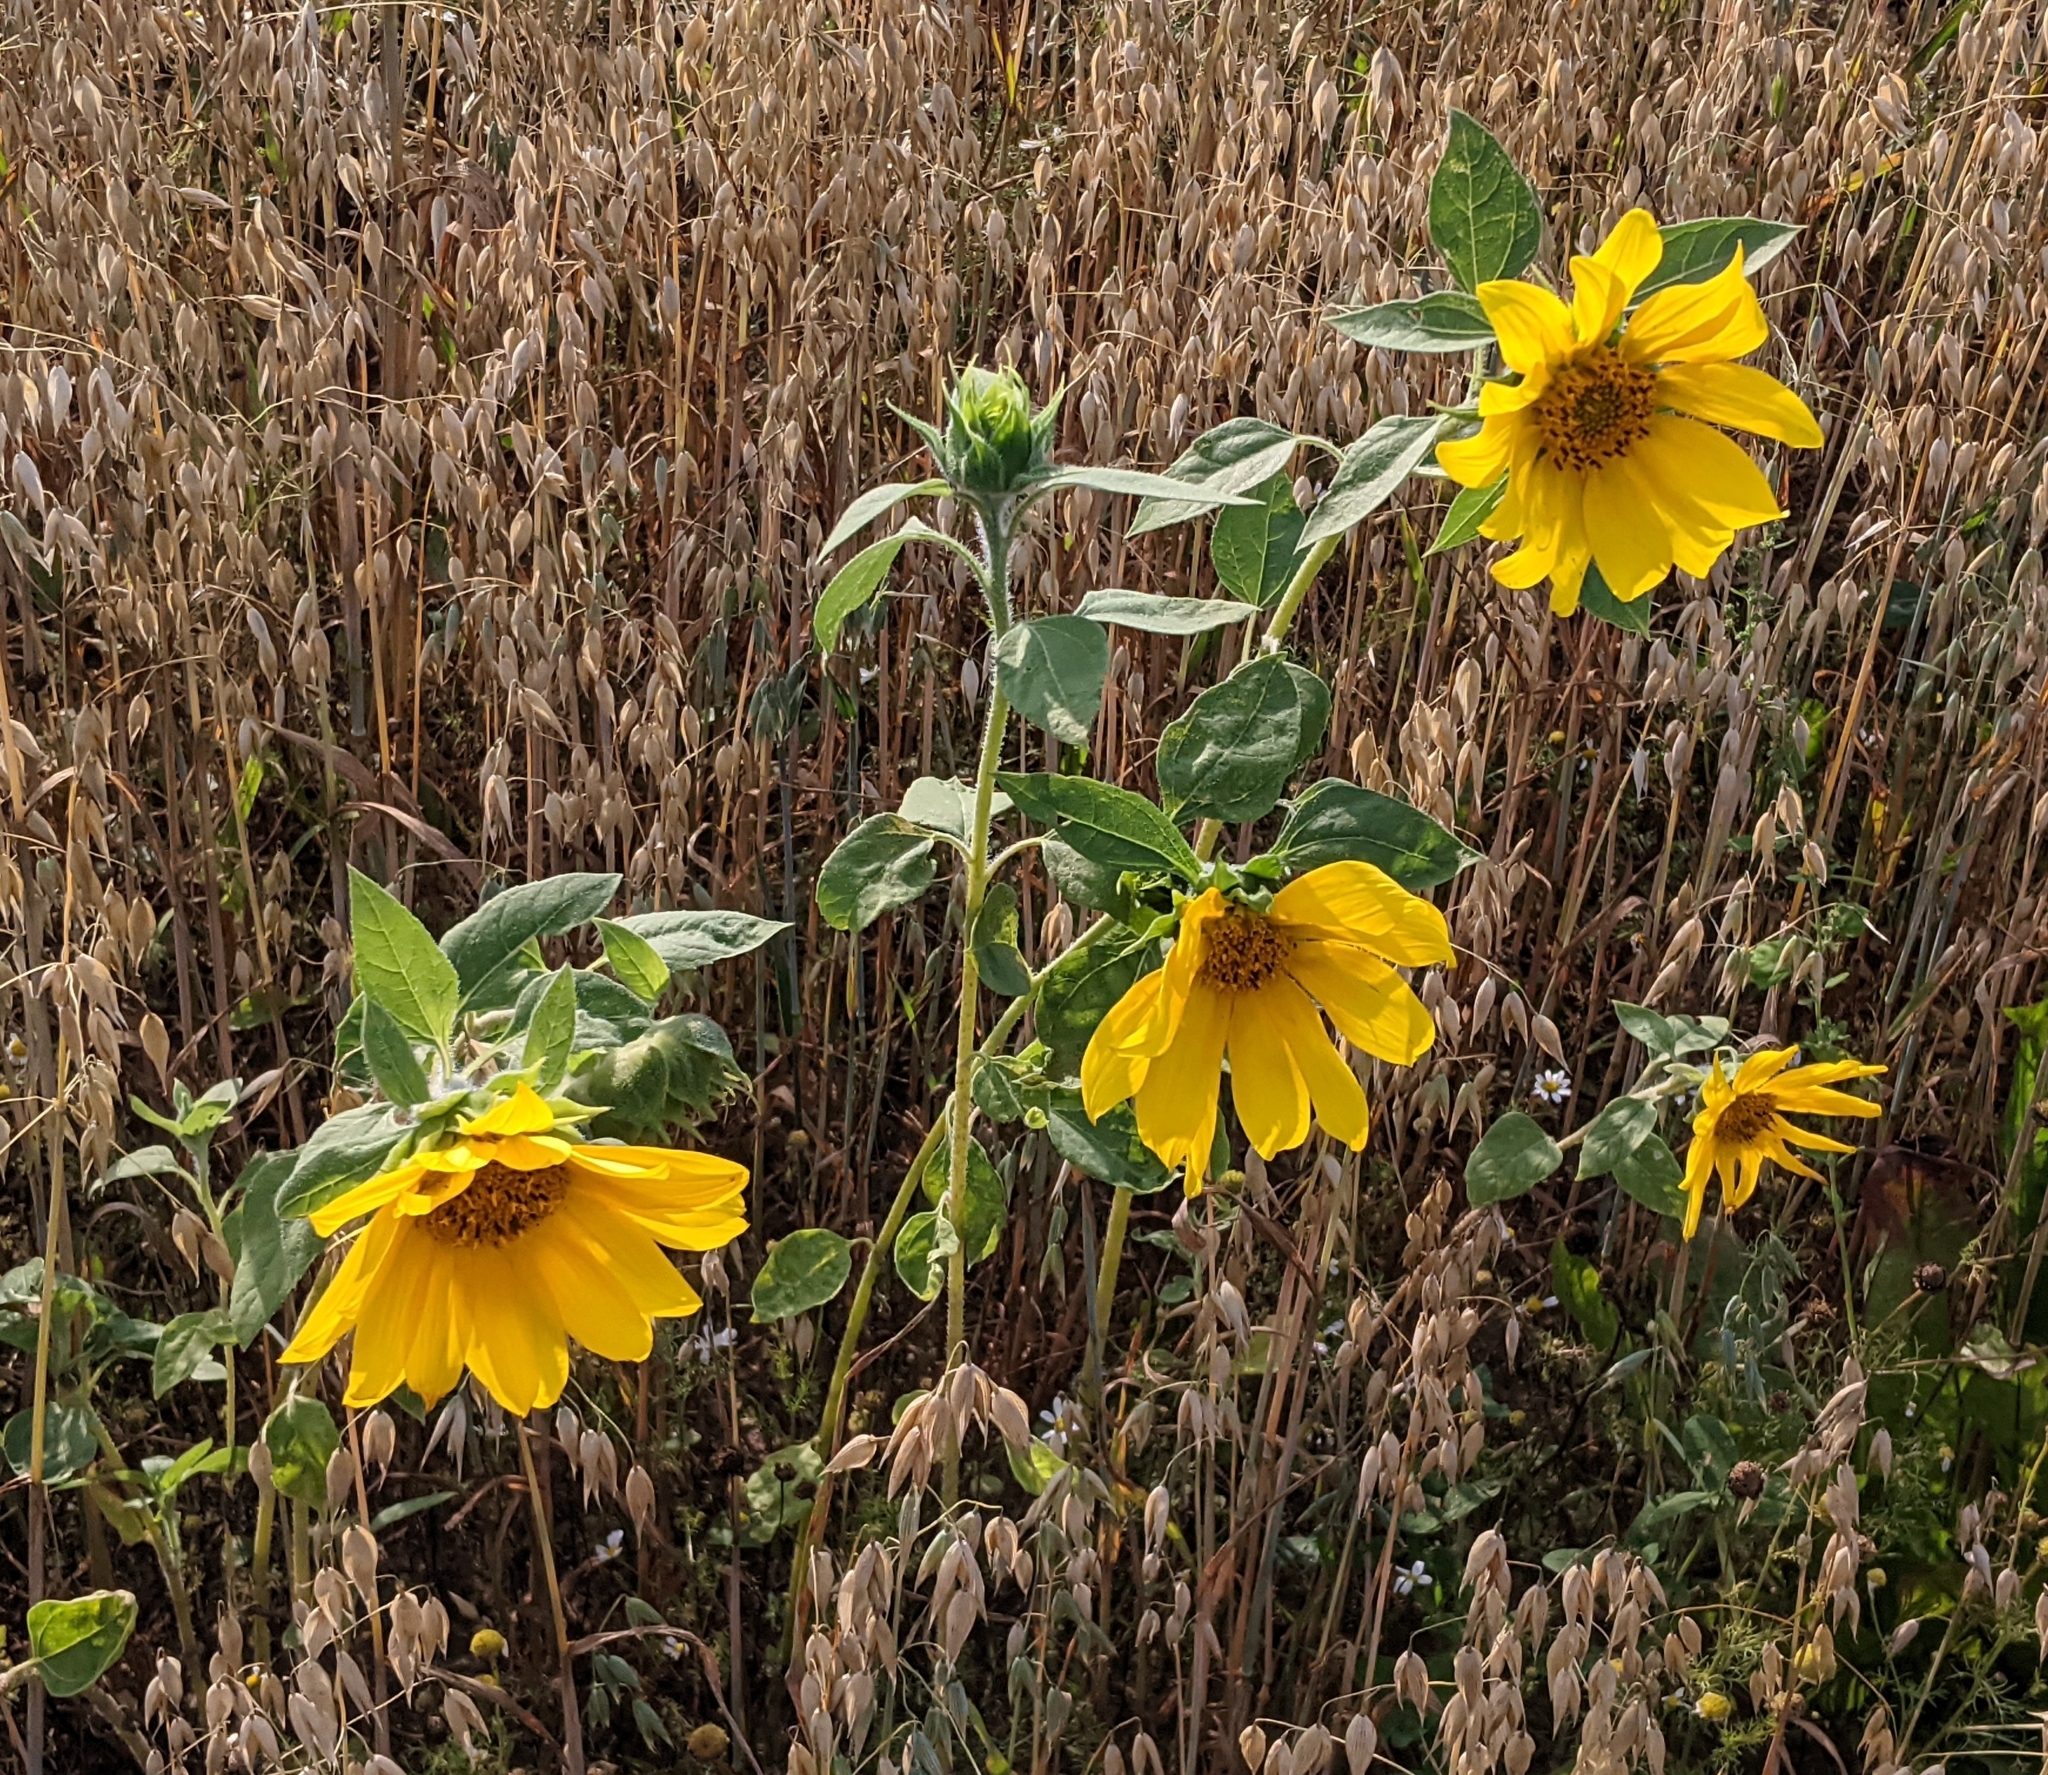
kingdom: Plantae
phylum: Tracheophyta
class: Magnoliopsida
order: Asterales
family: Asteraceae
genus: Helianthus
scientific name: Helianthus annuus
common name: Sunflower
